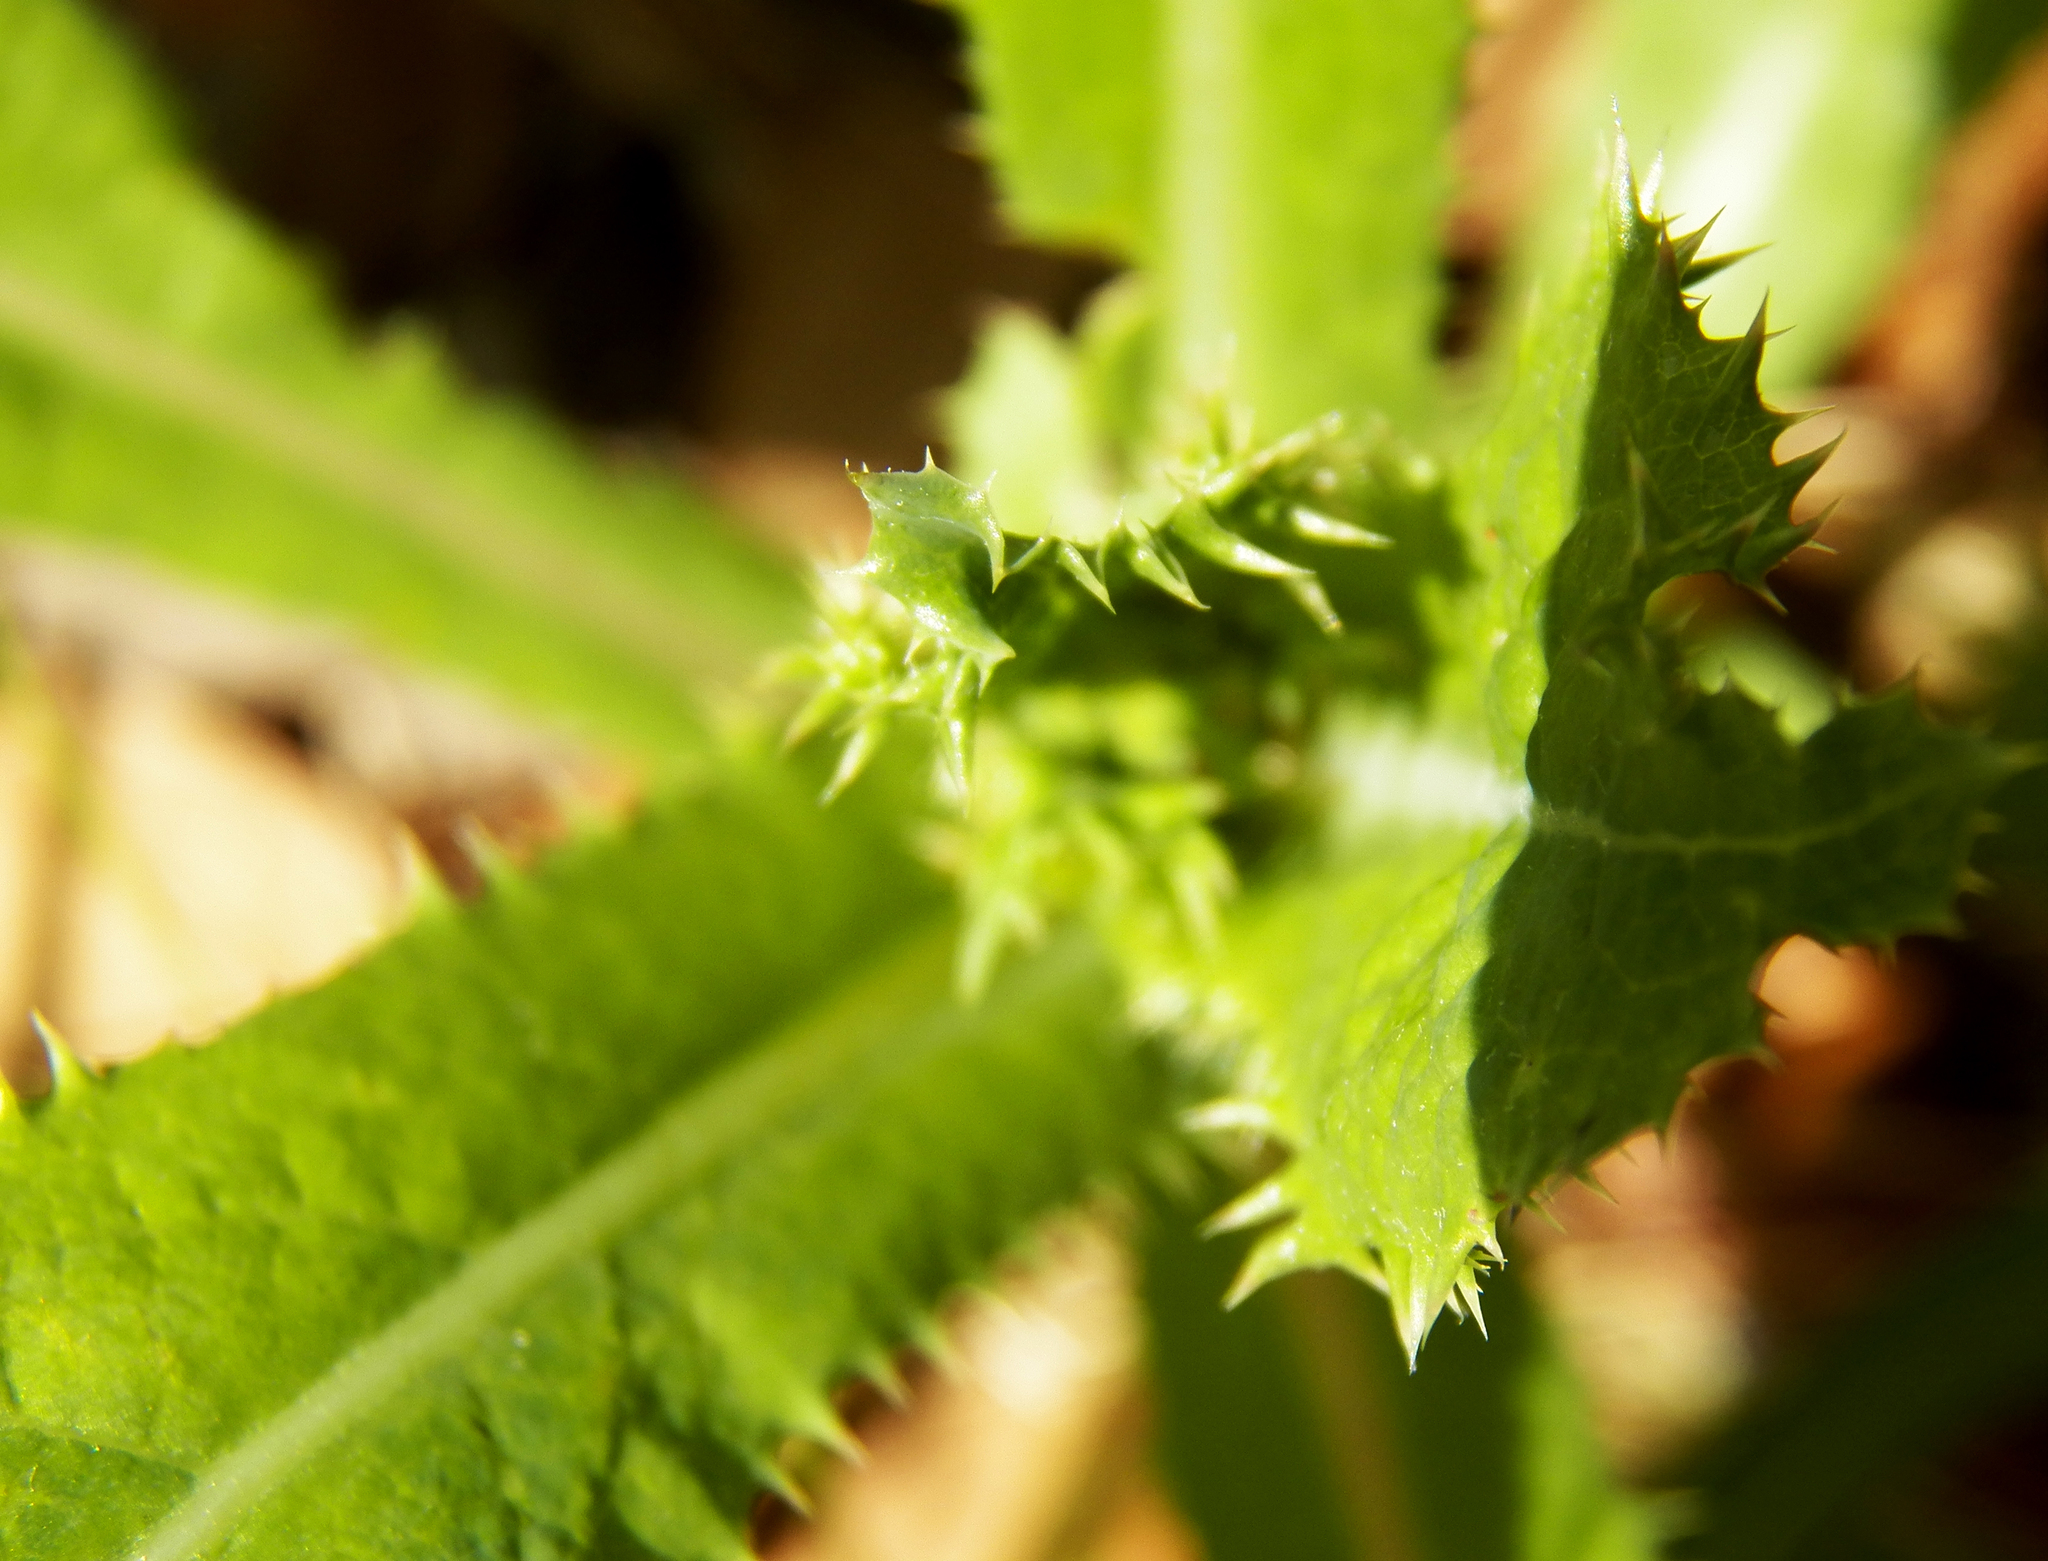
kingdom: Plantae
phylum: Tracheophyta
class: Magnoliopsida
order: Asterales
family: Asteraceae
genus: Sonchus
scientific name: Sonchus asper
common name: Prickly sow-thistle
